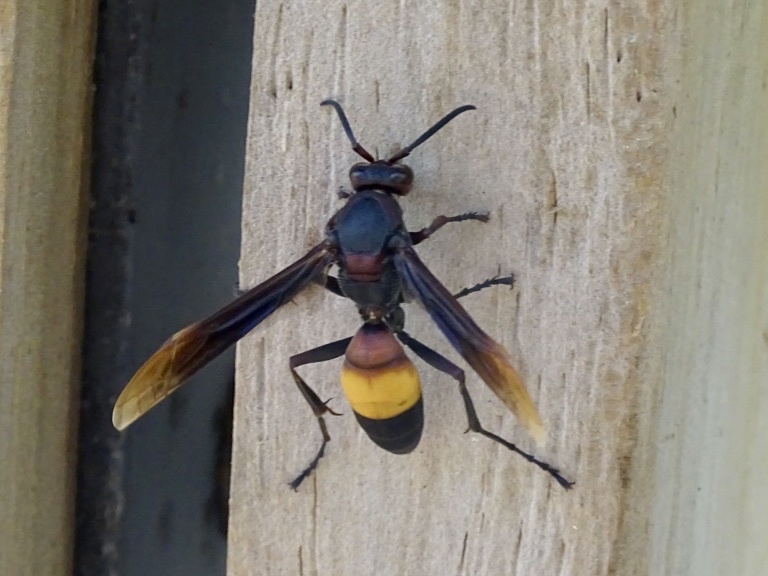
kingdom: Animalia
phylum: Arthropoda
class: Insecta
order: Hymenoptera
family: Eumenidae
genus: Polistes
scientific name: Polistes sagittarius
